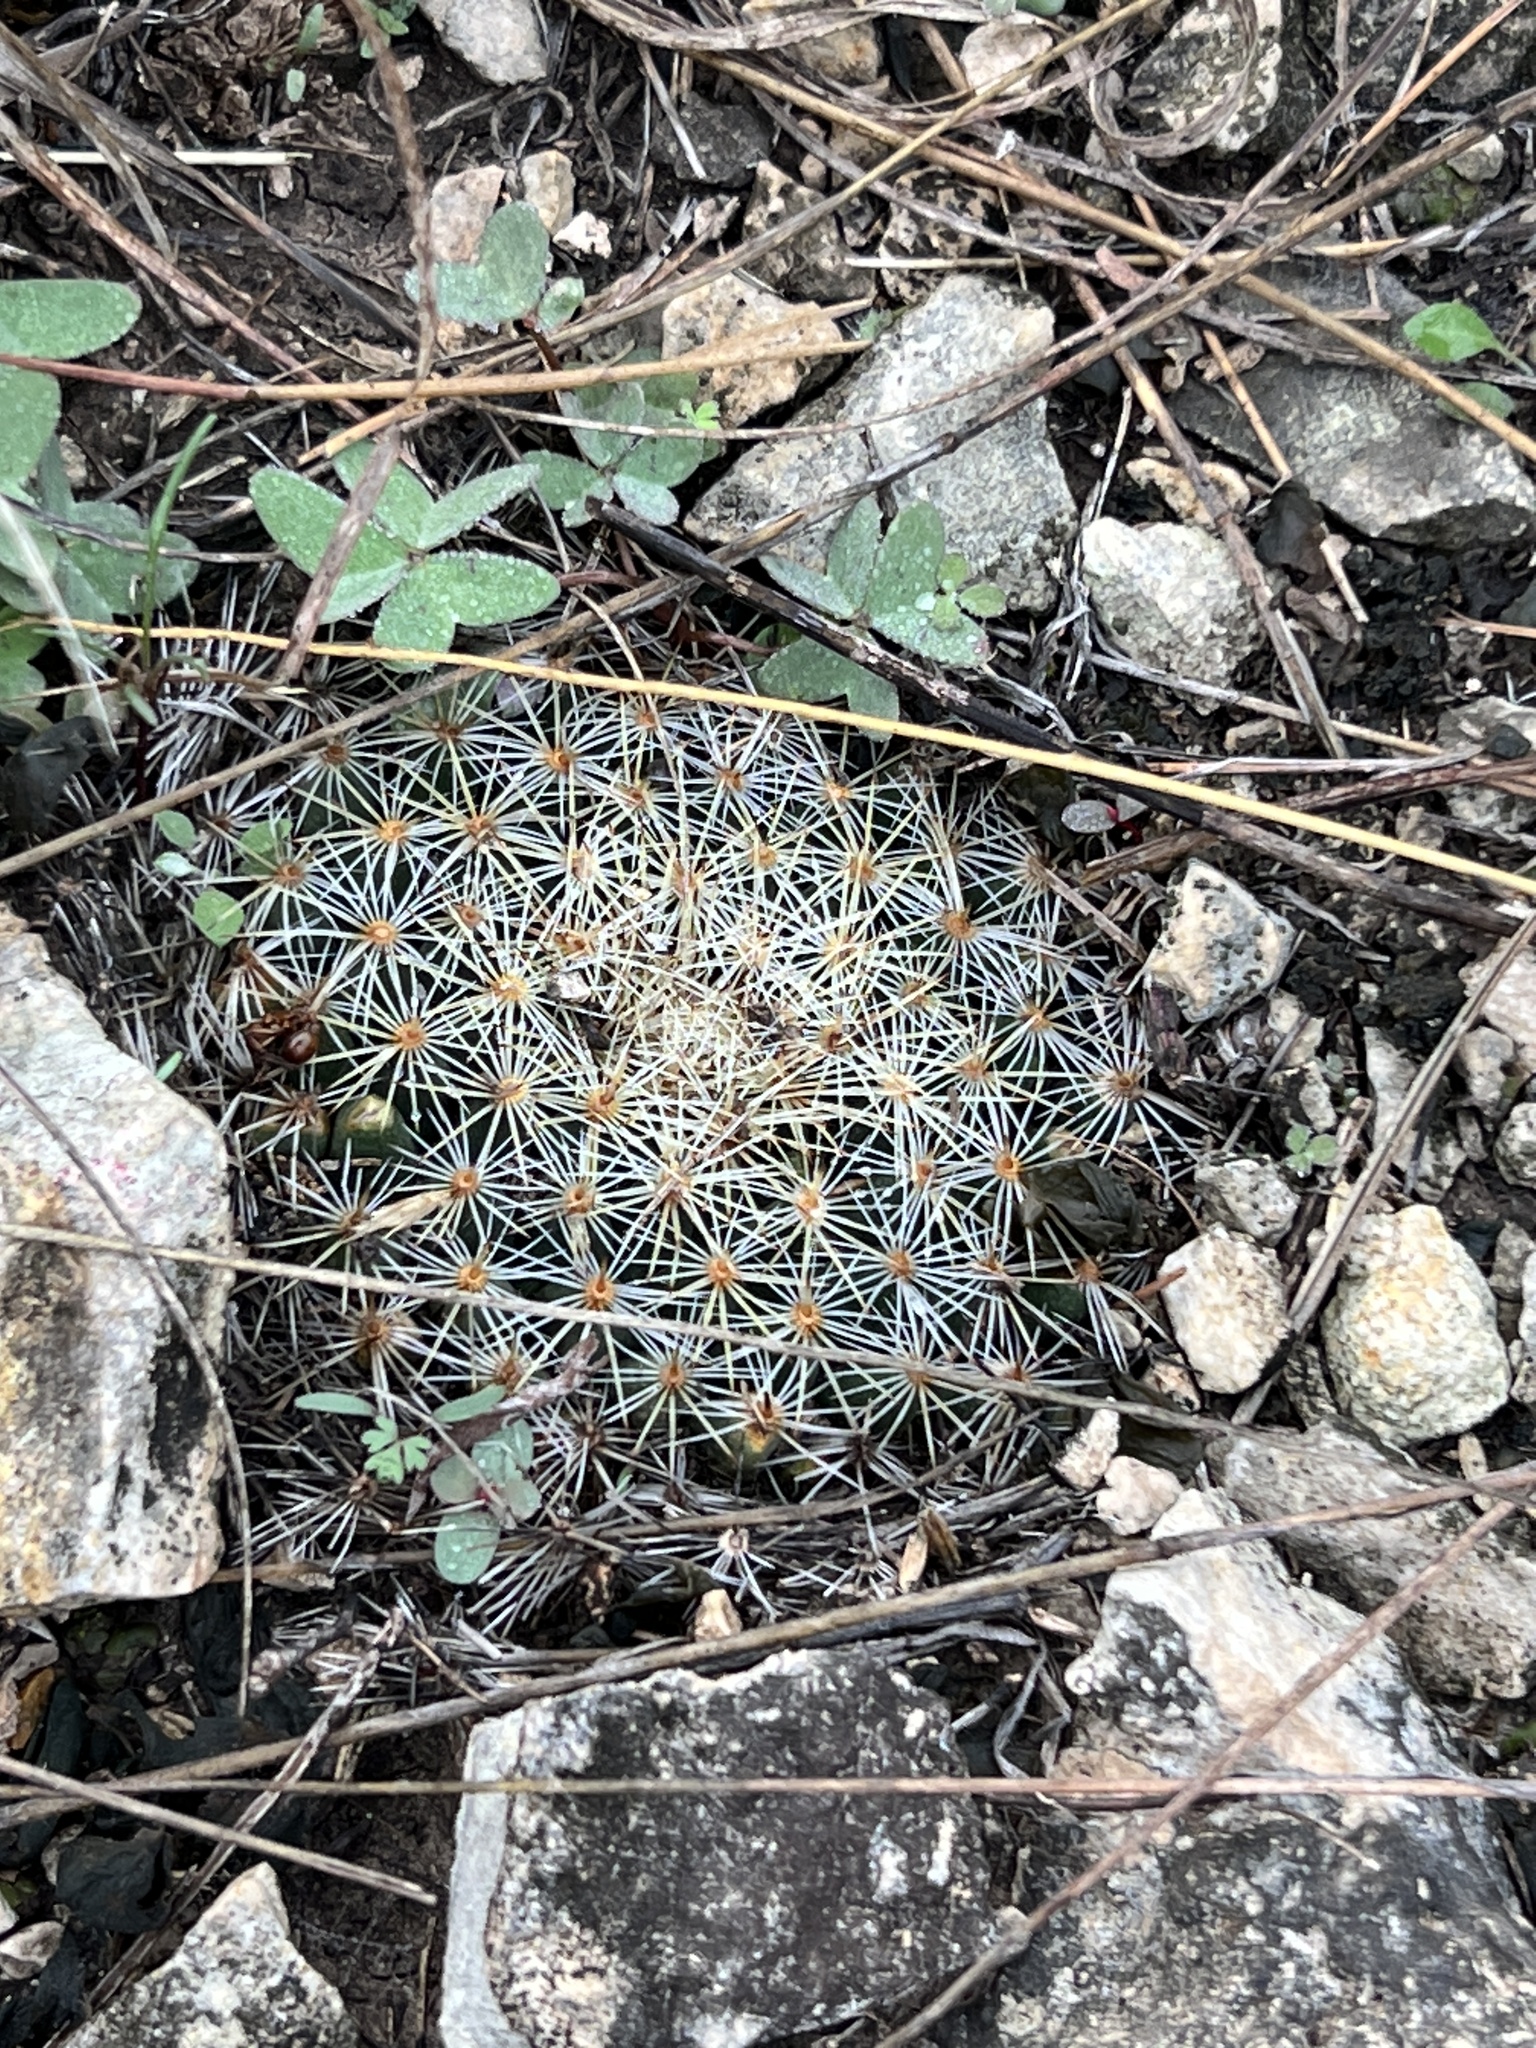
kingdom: Plantae
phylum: Tracheophyta
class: Magnoliopsida
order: Caryophyllales
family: Cactaceae
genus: Mammillaria
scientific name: Mammillaria heyderi
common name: Little nipple cactus
